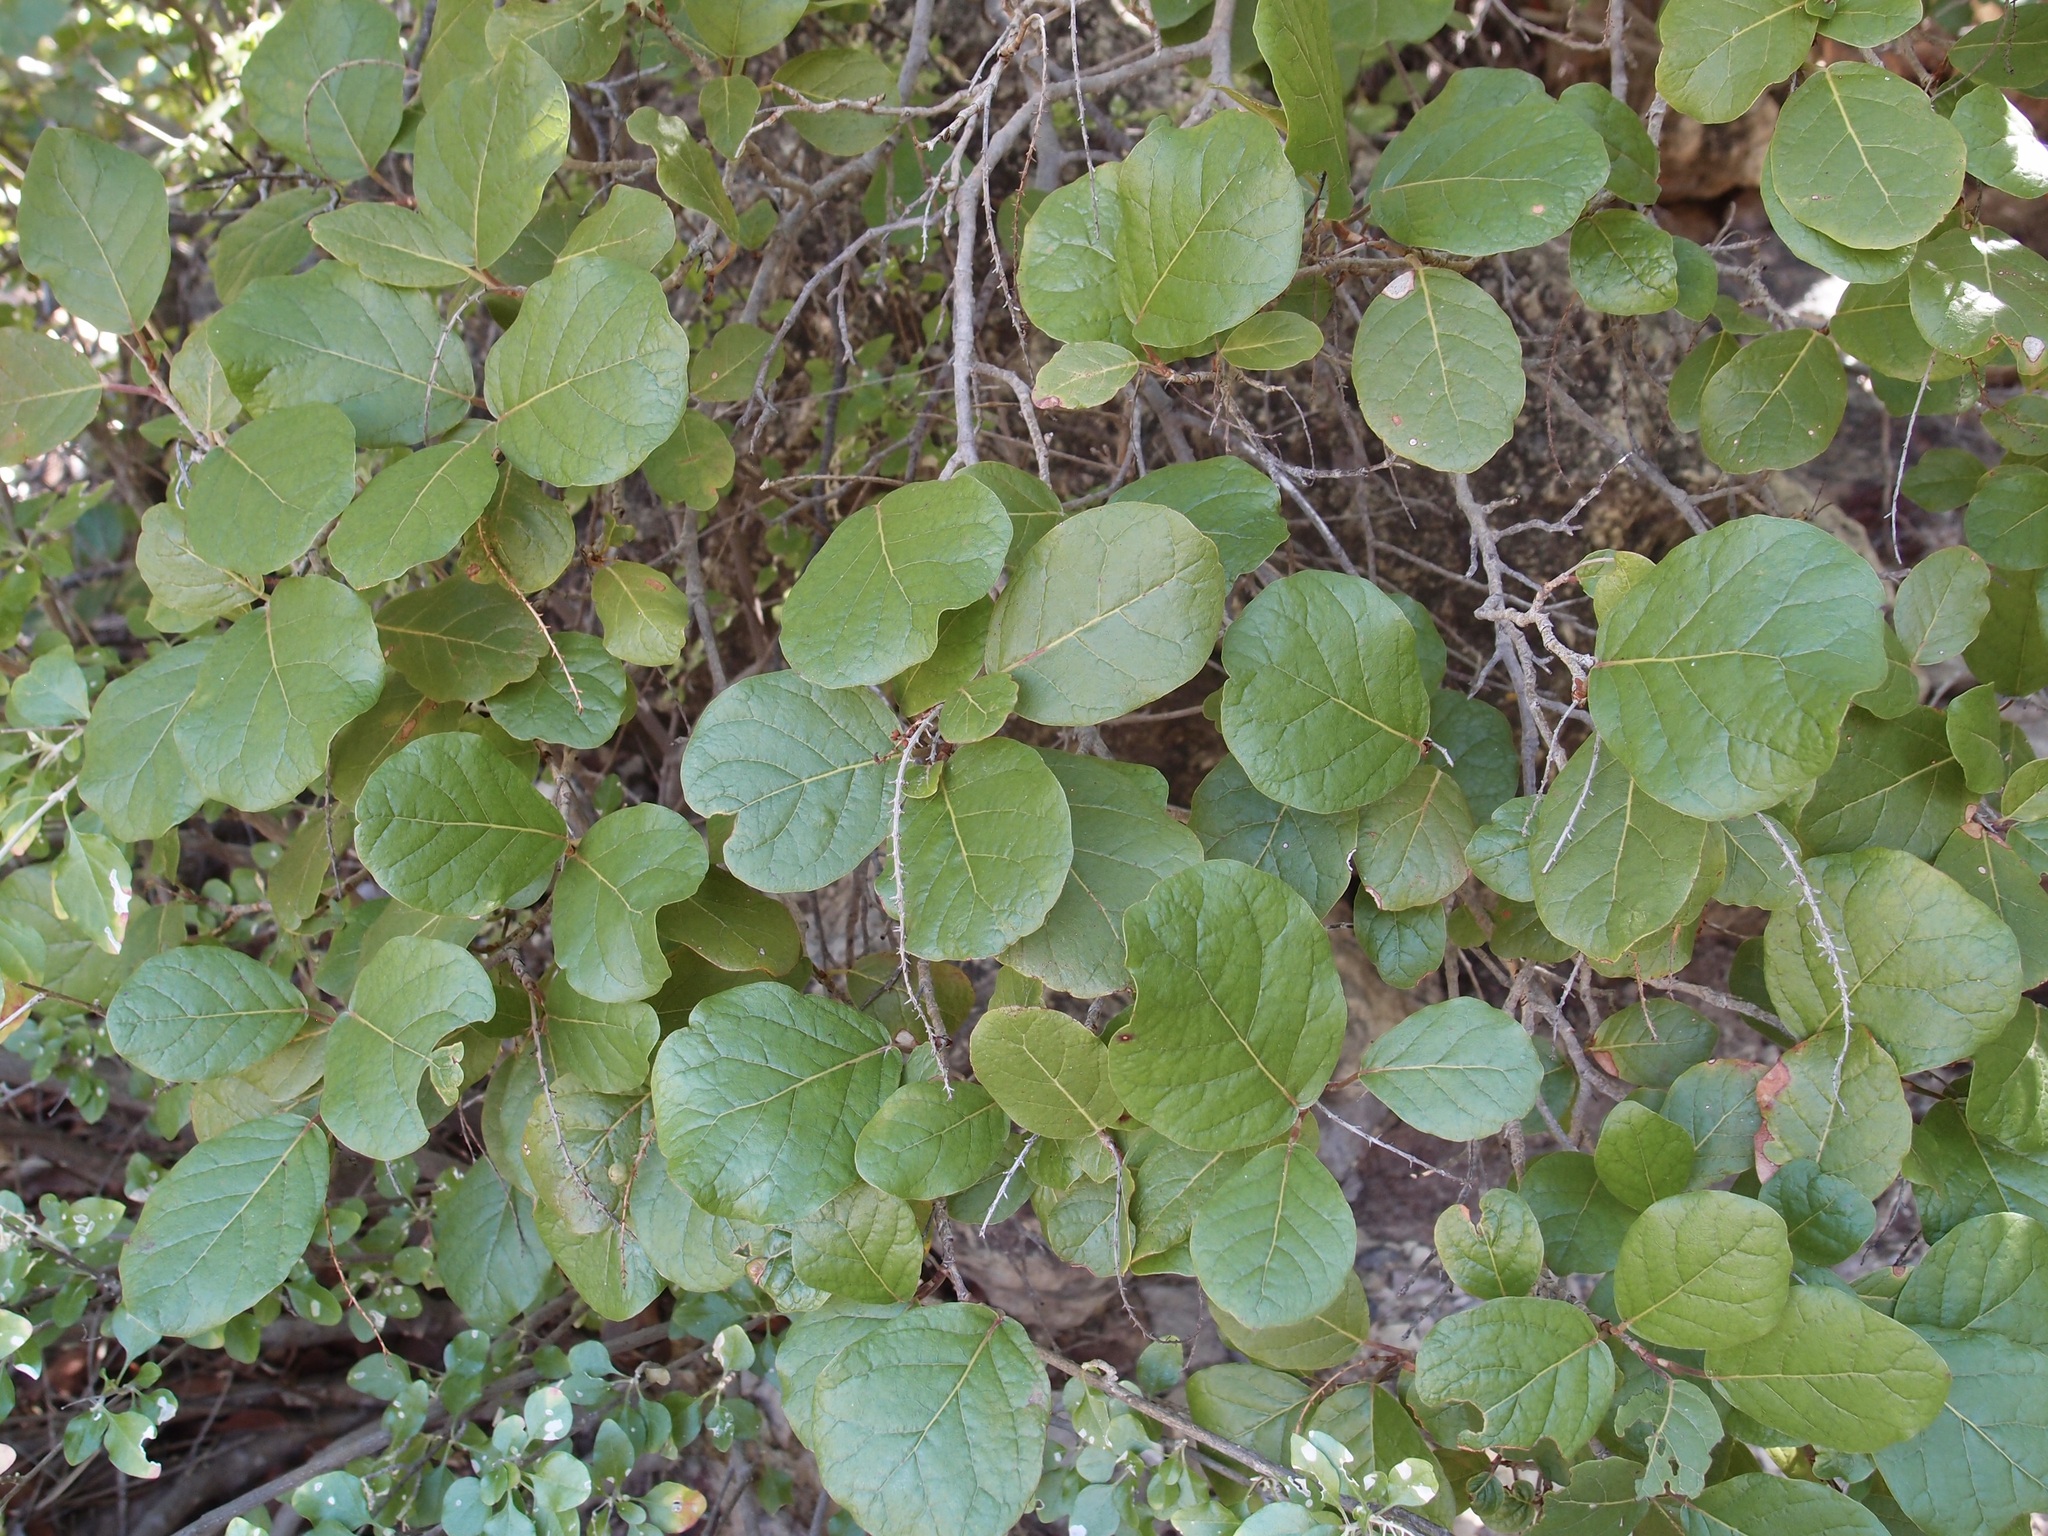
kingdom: Plantae
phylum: Tracheophyta
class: Magnoliopsida
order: Caryophyllales
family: Polygonaceae
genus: Coccoloba
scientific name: Coccoloba goldmanii
